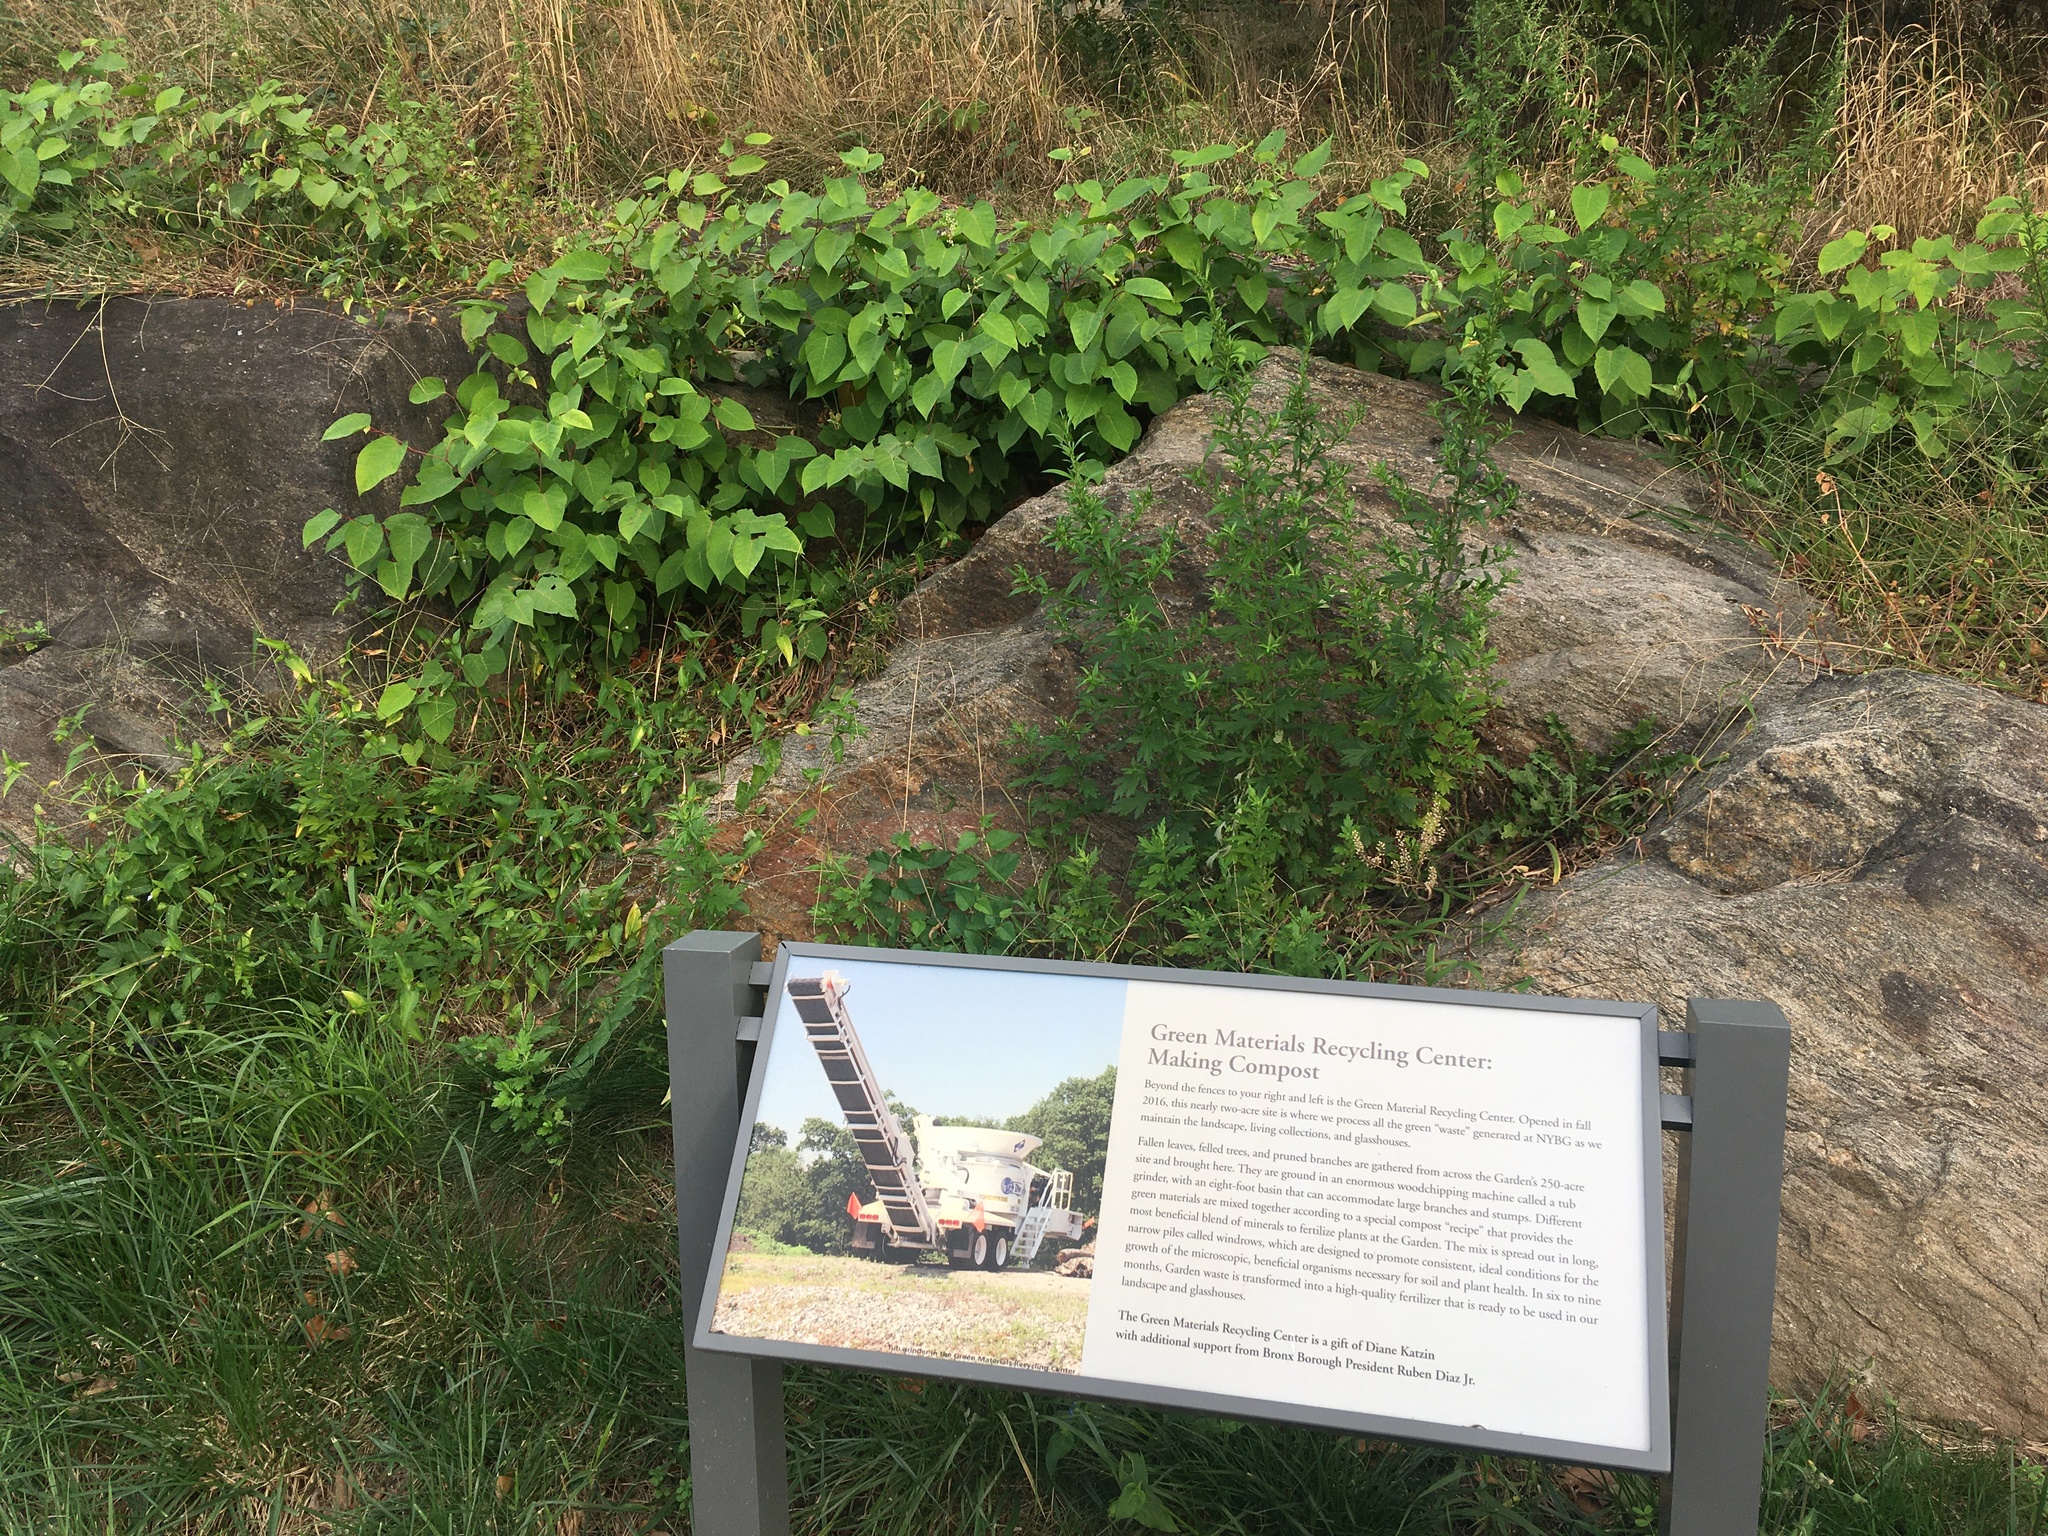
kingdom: Plantae
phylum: Tracheophyta
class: Magnoliopsida
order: Asterales
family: Asteraceae
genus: Artemisia
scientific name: Artemisia vulgaris
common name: Mugwort
